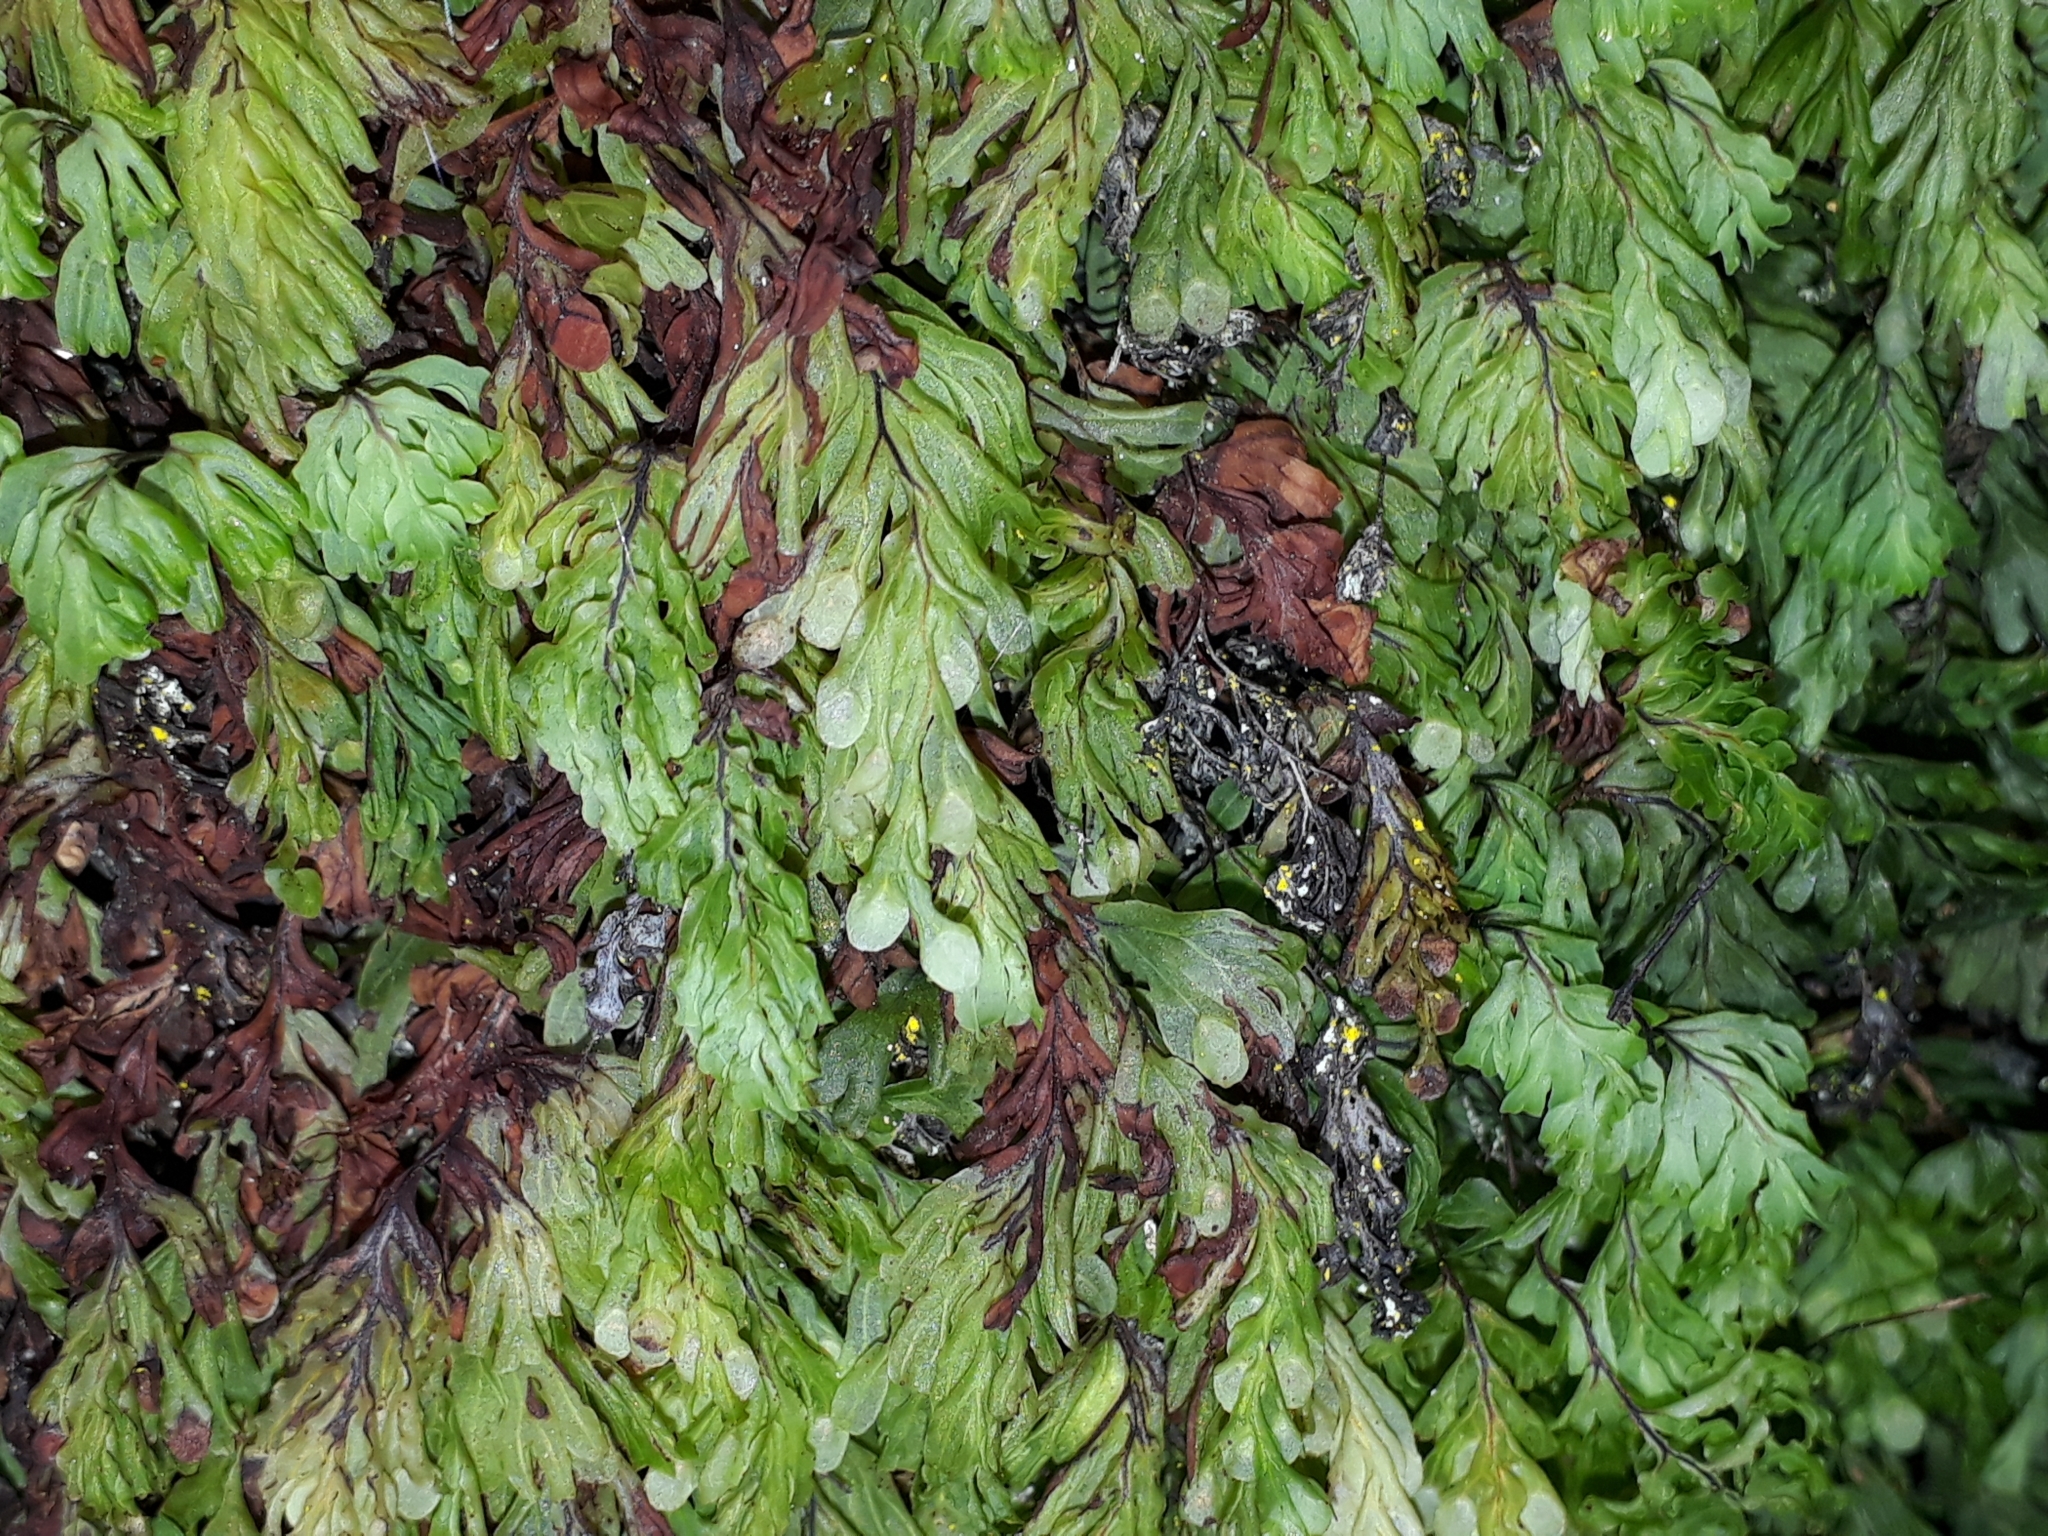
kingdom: Plantae
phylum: Tracheophyta
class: Polypodiopsida
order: Hymenophyllales
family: Hymenophyllaceae
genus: Hymenophyllum
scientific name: Hymenophyllum rarum
